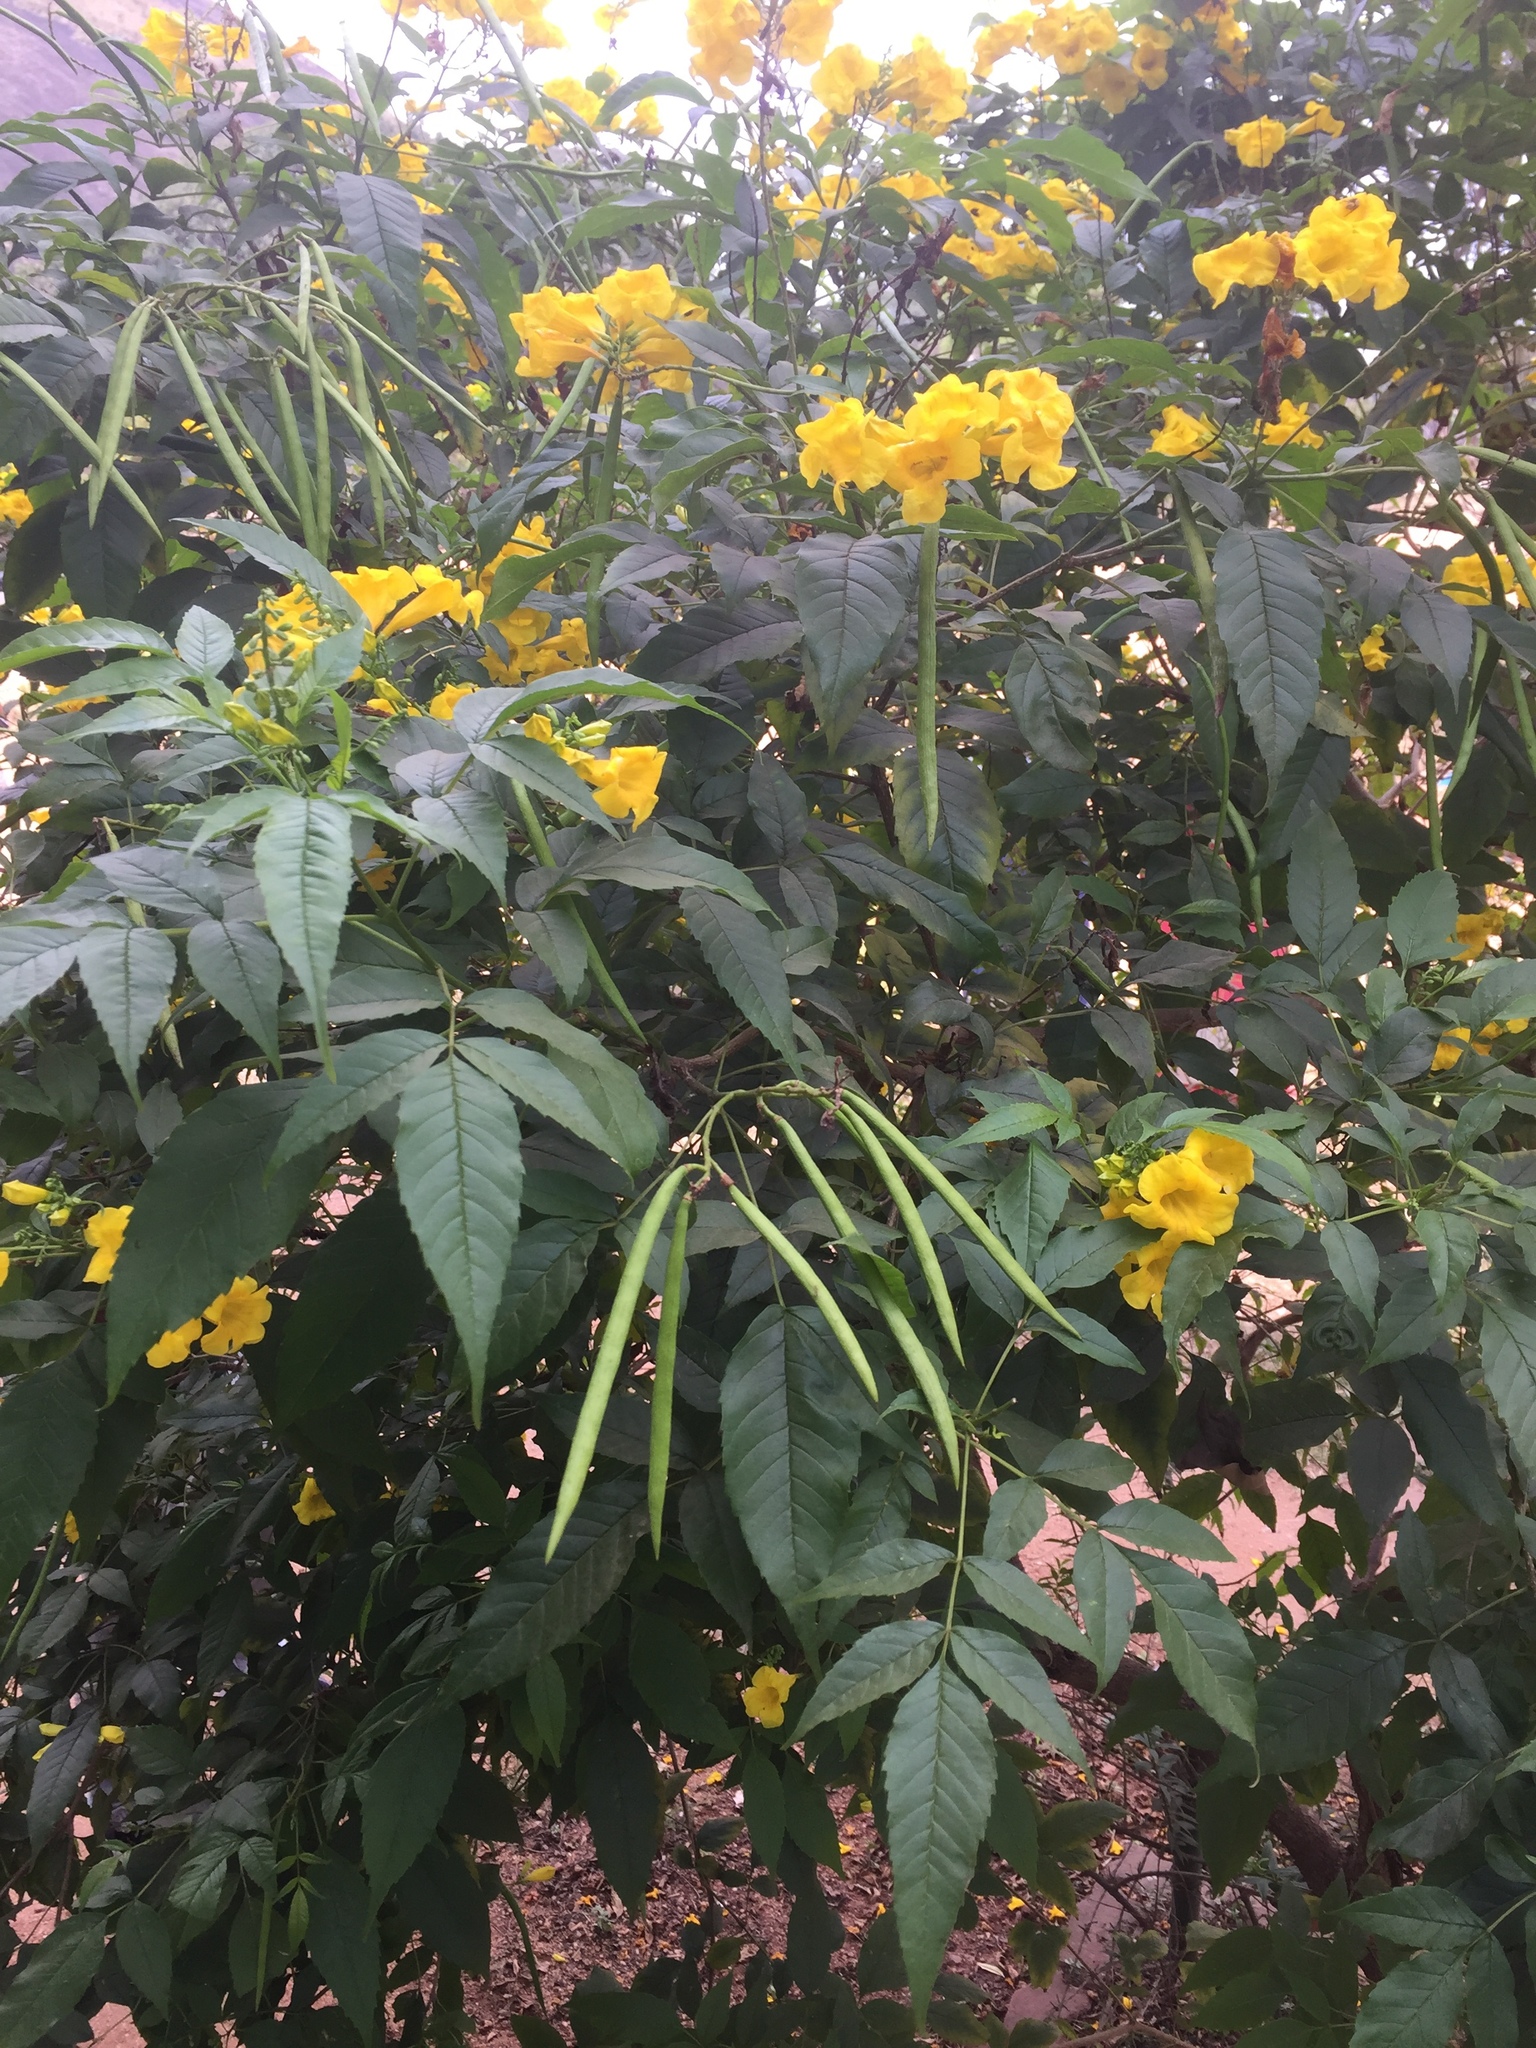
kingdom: Plantae
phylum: Tracheophyta
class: Magnoliopsida
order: Lamiales
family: Bignoniaceae
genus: Tecoma
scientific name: Tecoma stans
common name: Yellow trumpetbush
